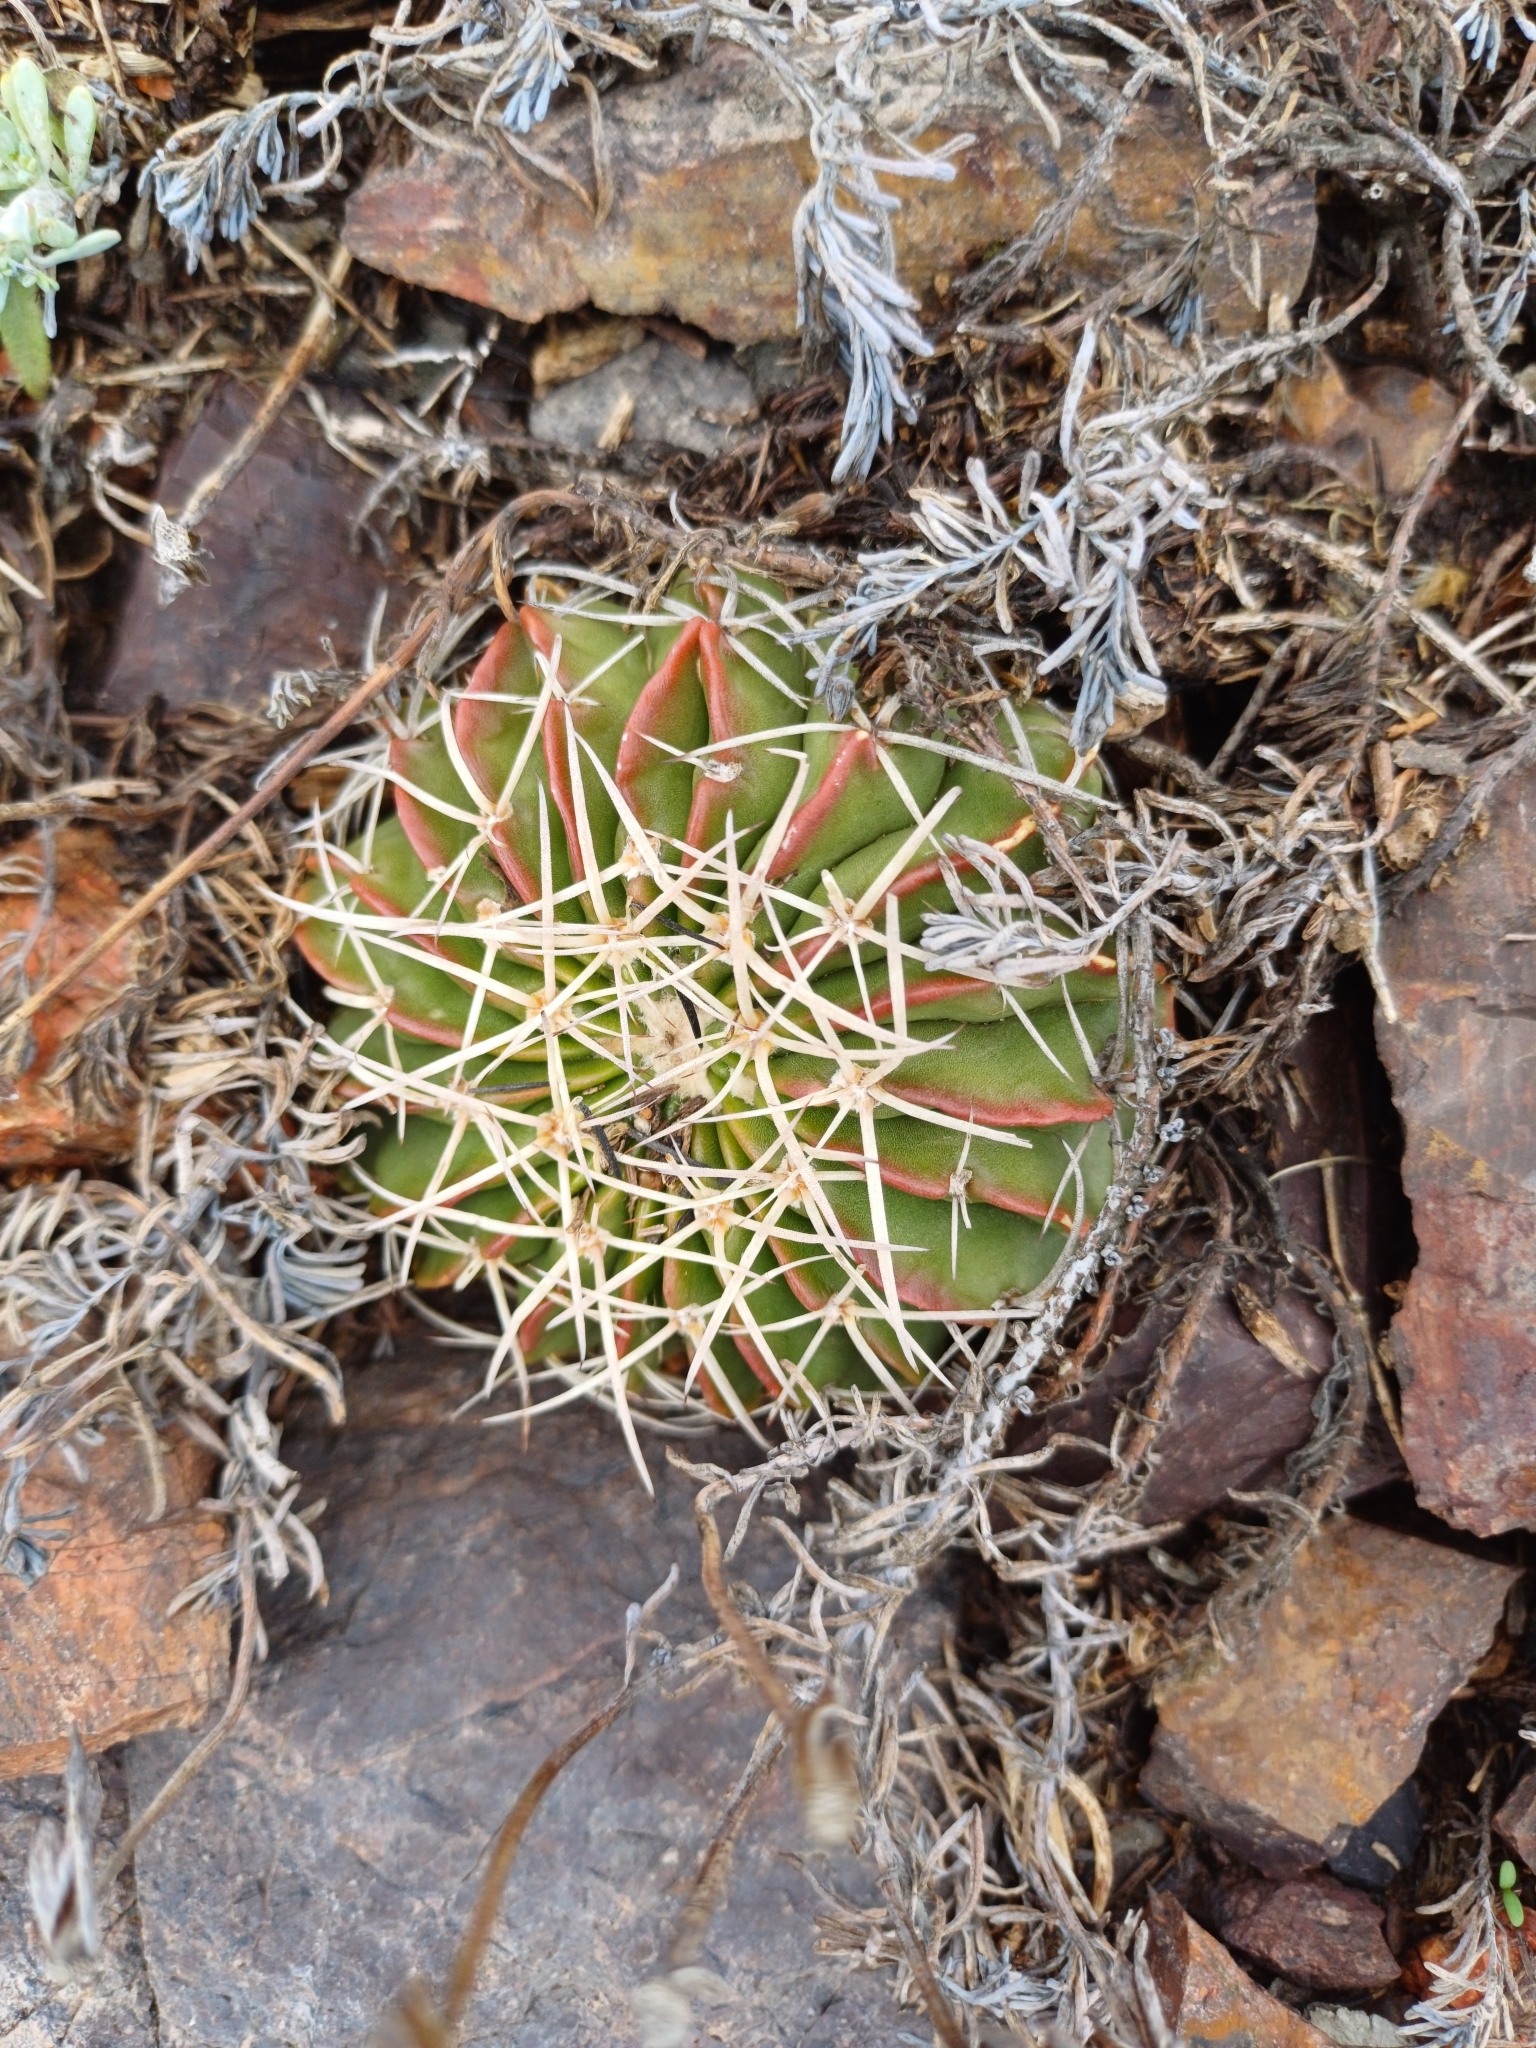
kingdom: Plantae
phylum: Tracheophyta
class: Magnoliopsida
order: Caryophyllales
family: Cactaceae
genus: Parodia
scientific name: Parodia erinacea
